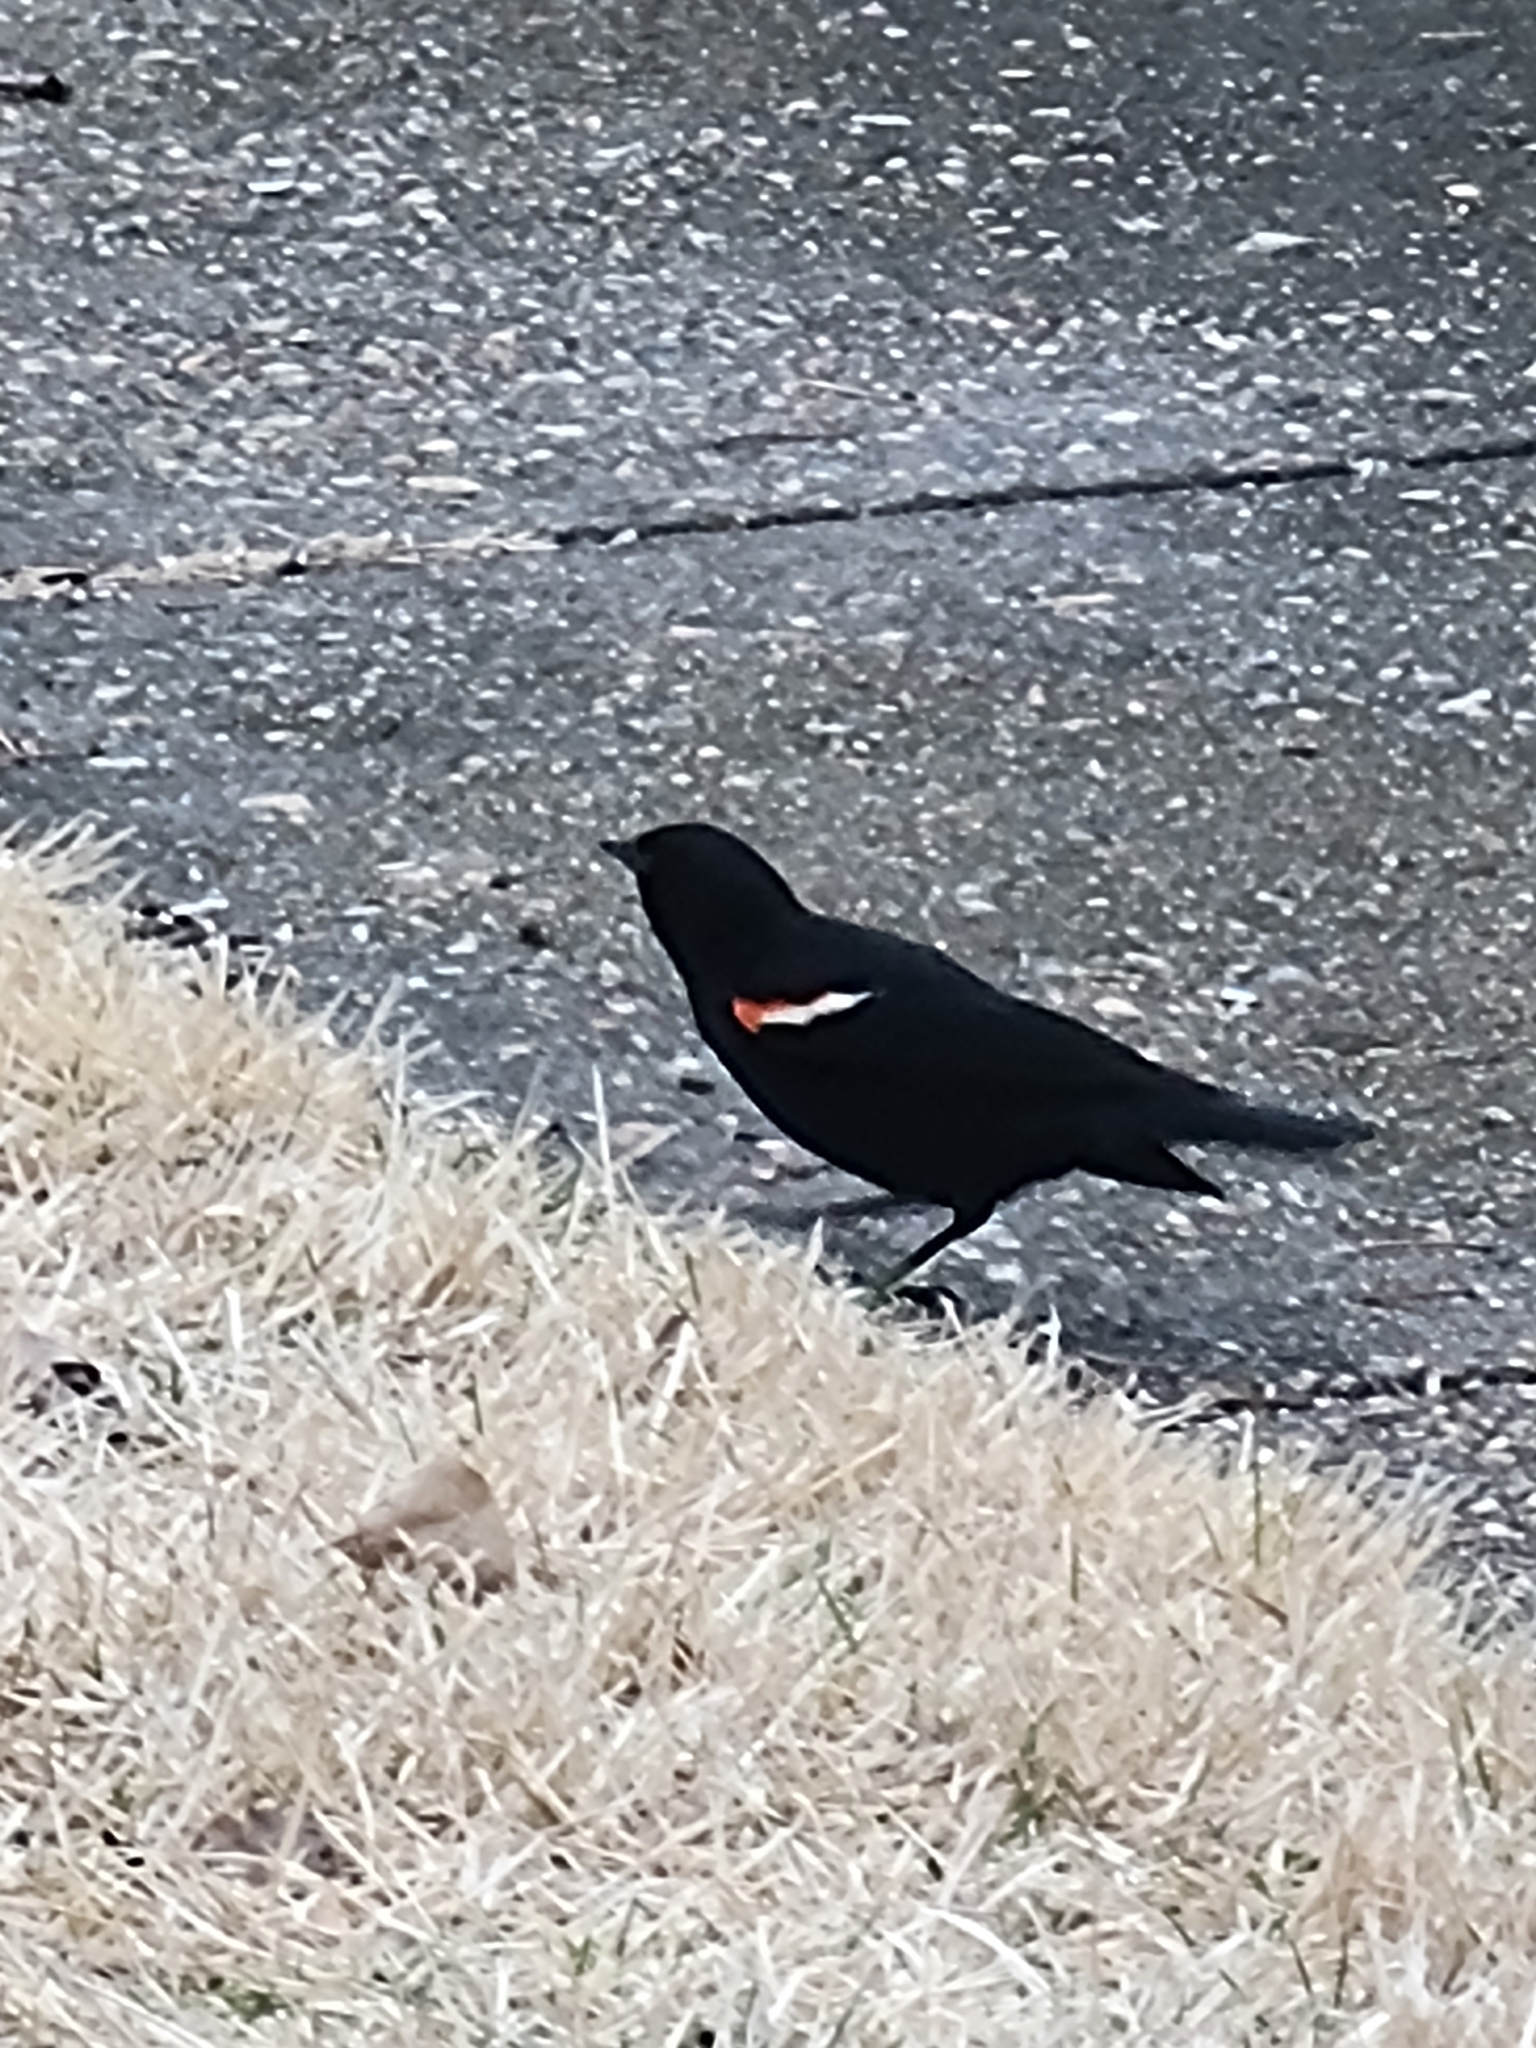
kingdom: Animalia
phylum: Chordata
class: Aves
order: Passeriformes
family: Icteridae
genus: Agelaius
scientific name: Agelaius phoeniceus
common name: Red-winged blackbird
